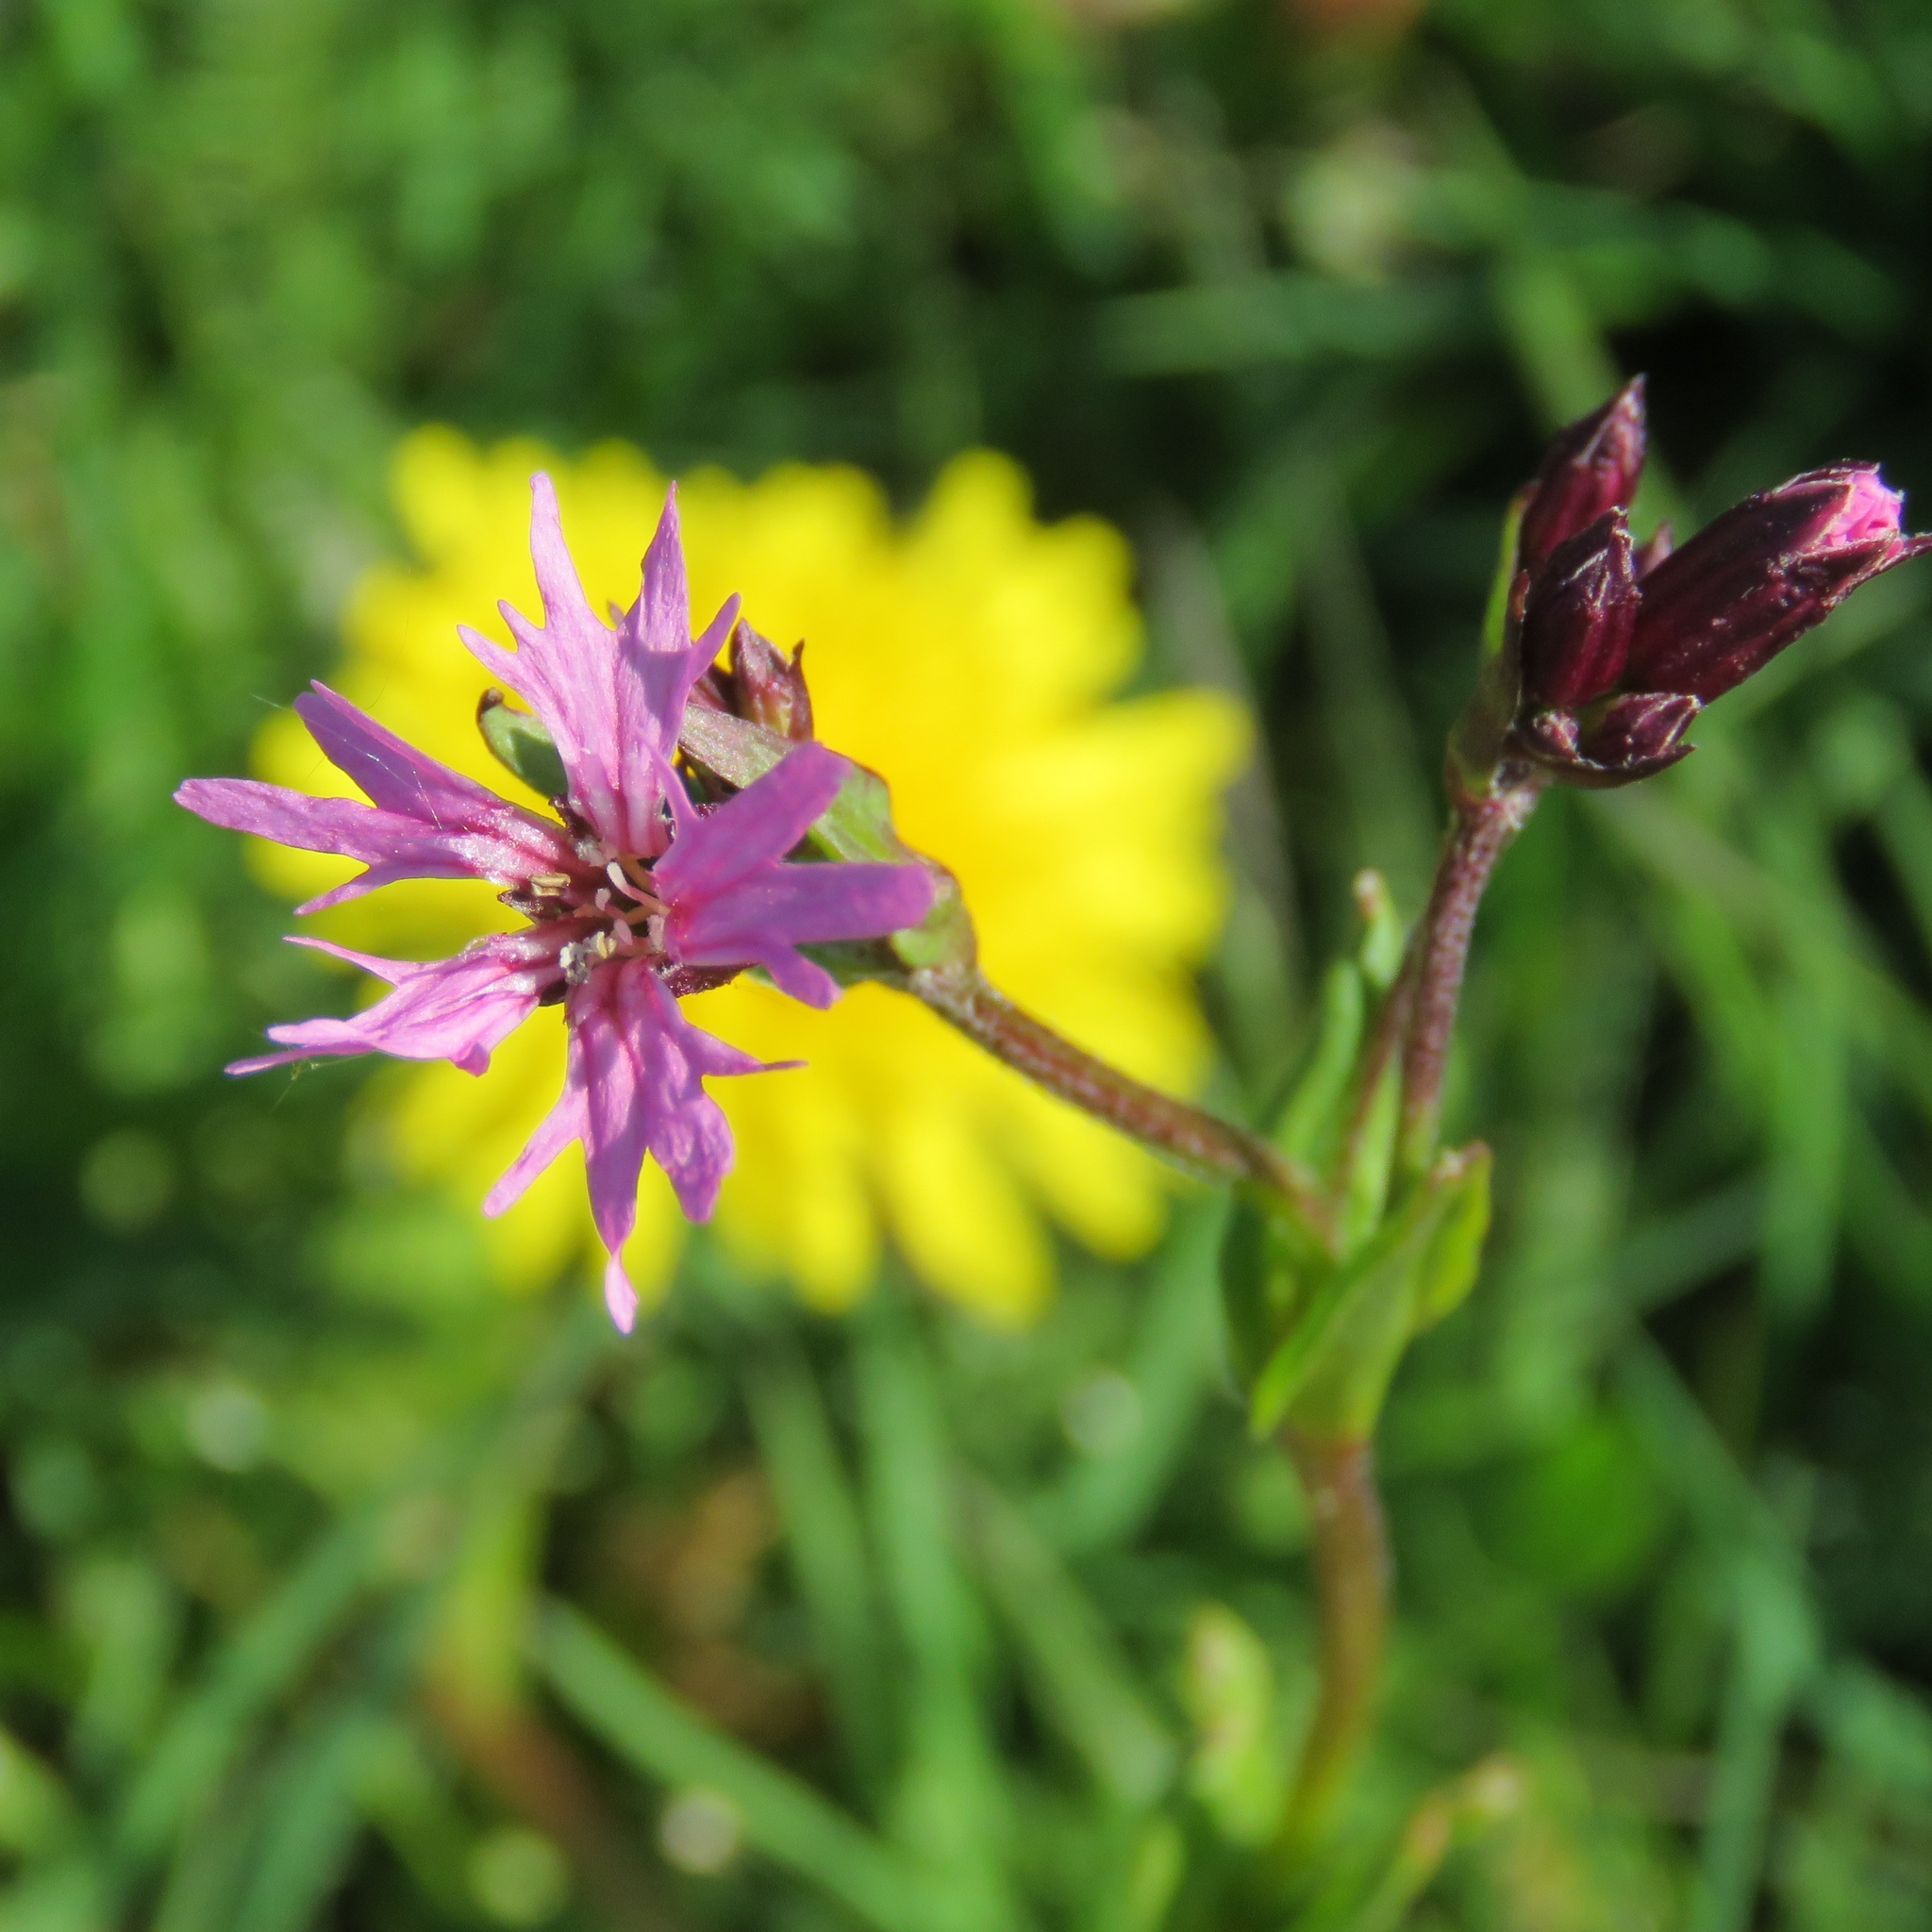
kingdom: Plantae
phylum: Tracheophyta
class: Magnoliopsida
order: Caryophyllales
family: Caryophyllaceae
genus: Silene
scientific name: Silene flos-cuculi
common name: Ragged-robin
